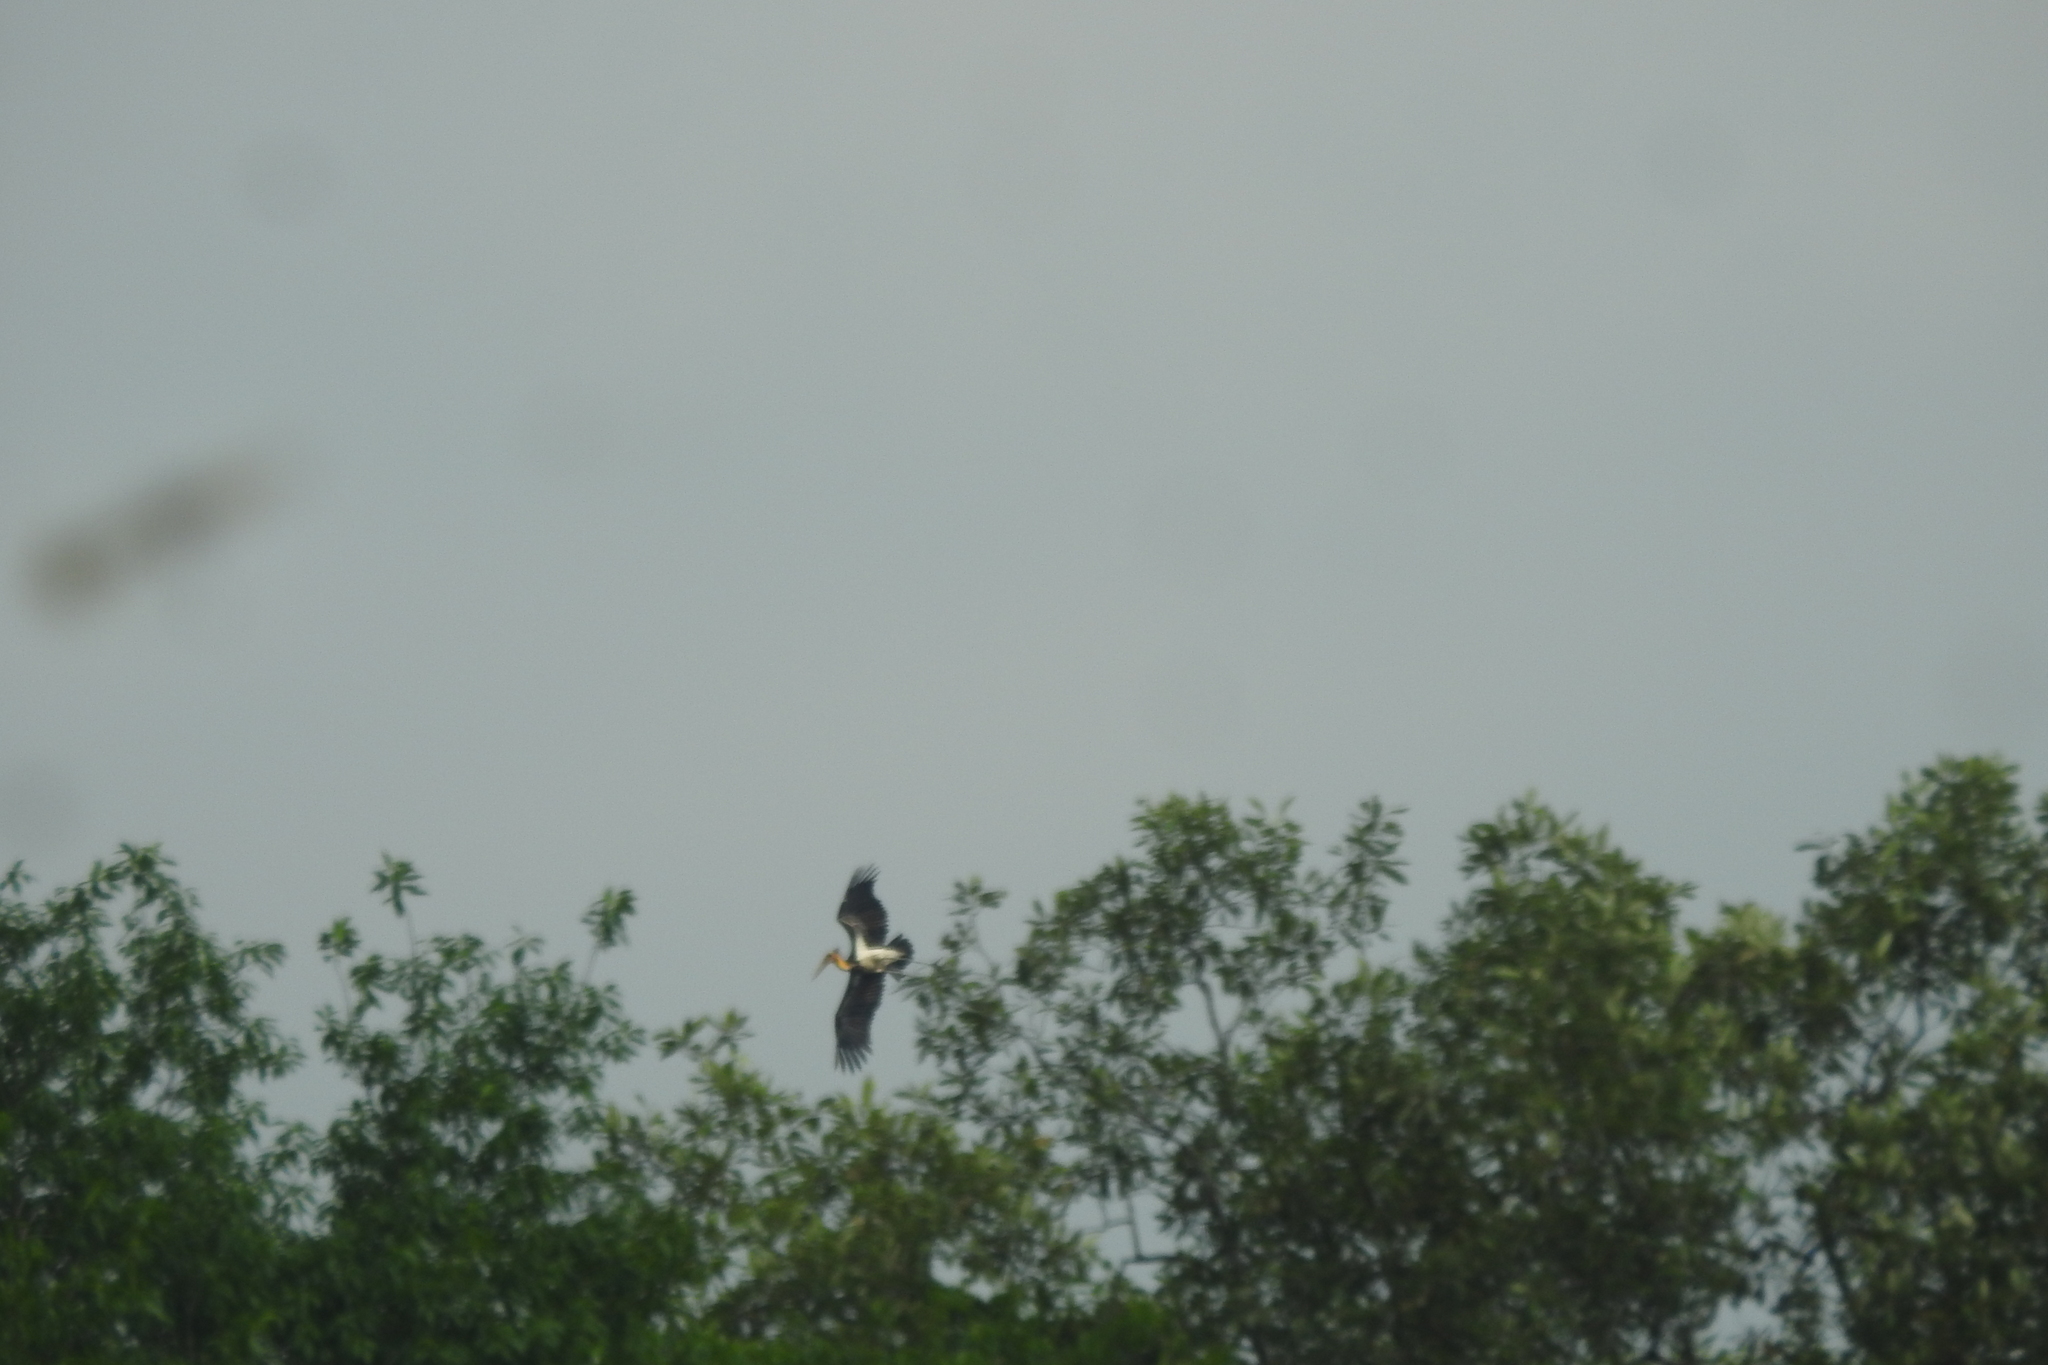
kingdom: Animalia
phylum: Chordata
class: Aves
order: Ciconiiformes
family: Ciconiidae
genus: Leptoptilos
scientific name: Leptoptilos javanicus
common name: Lesser adjutant
